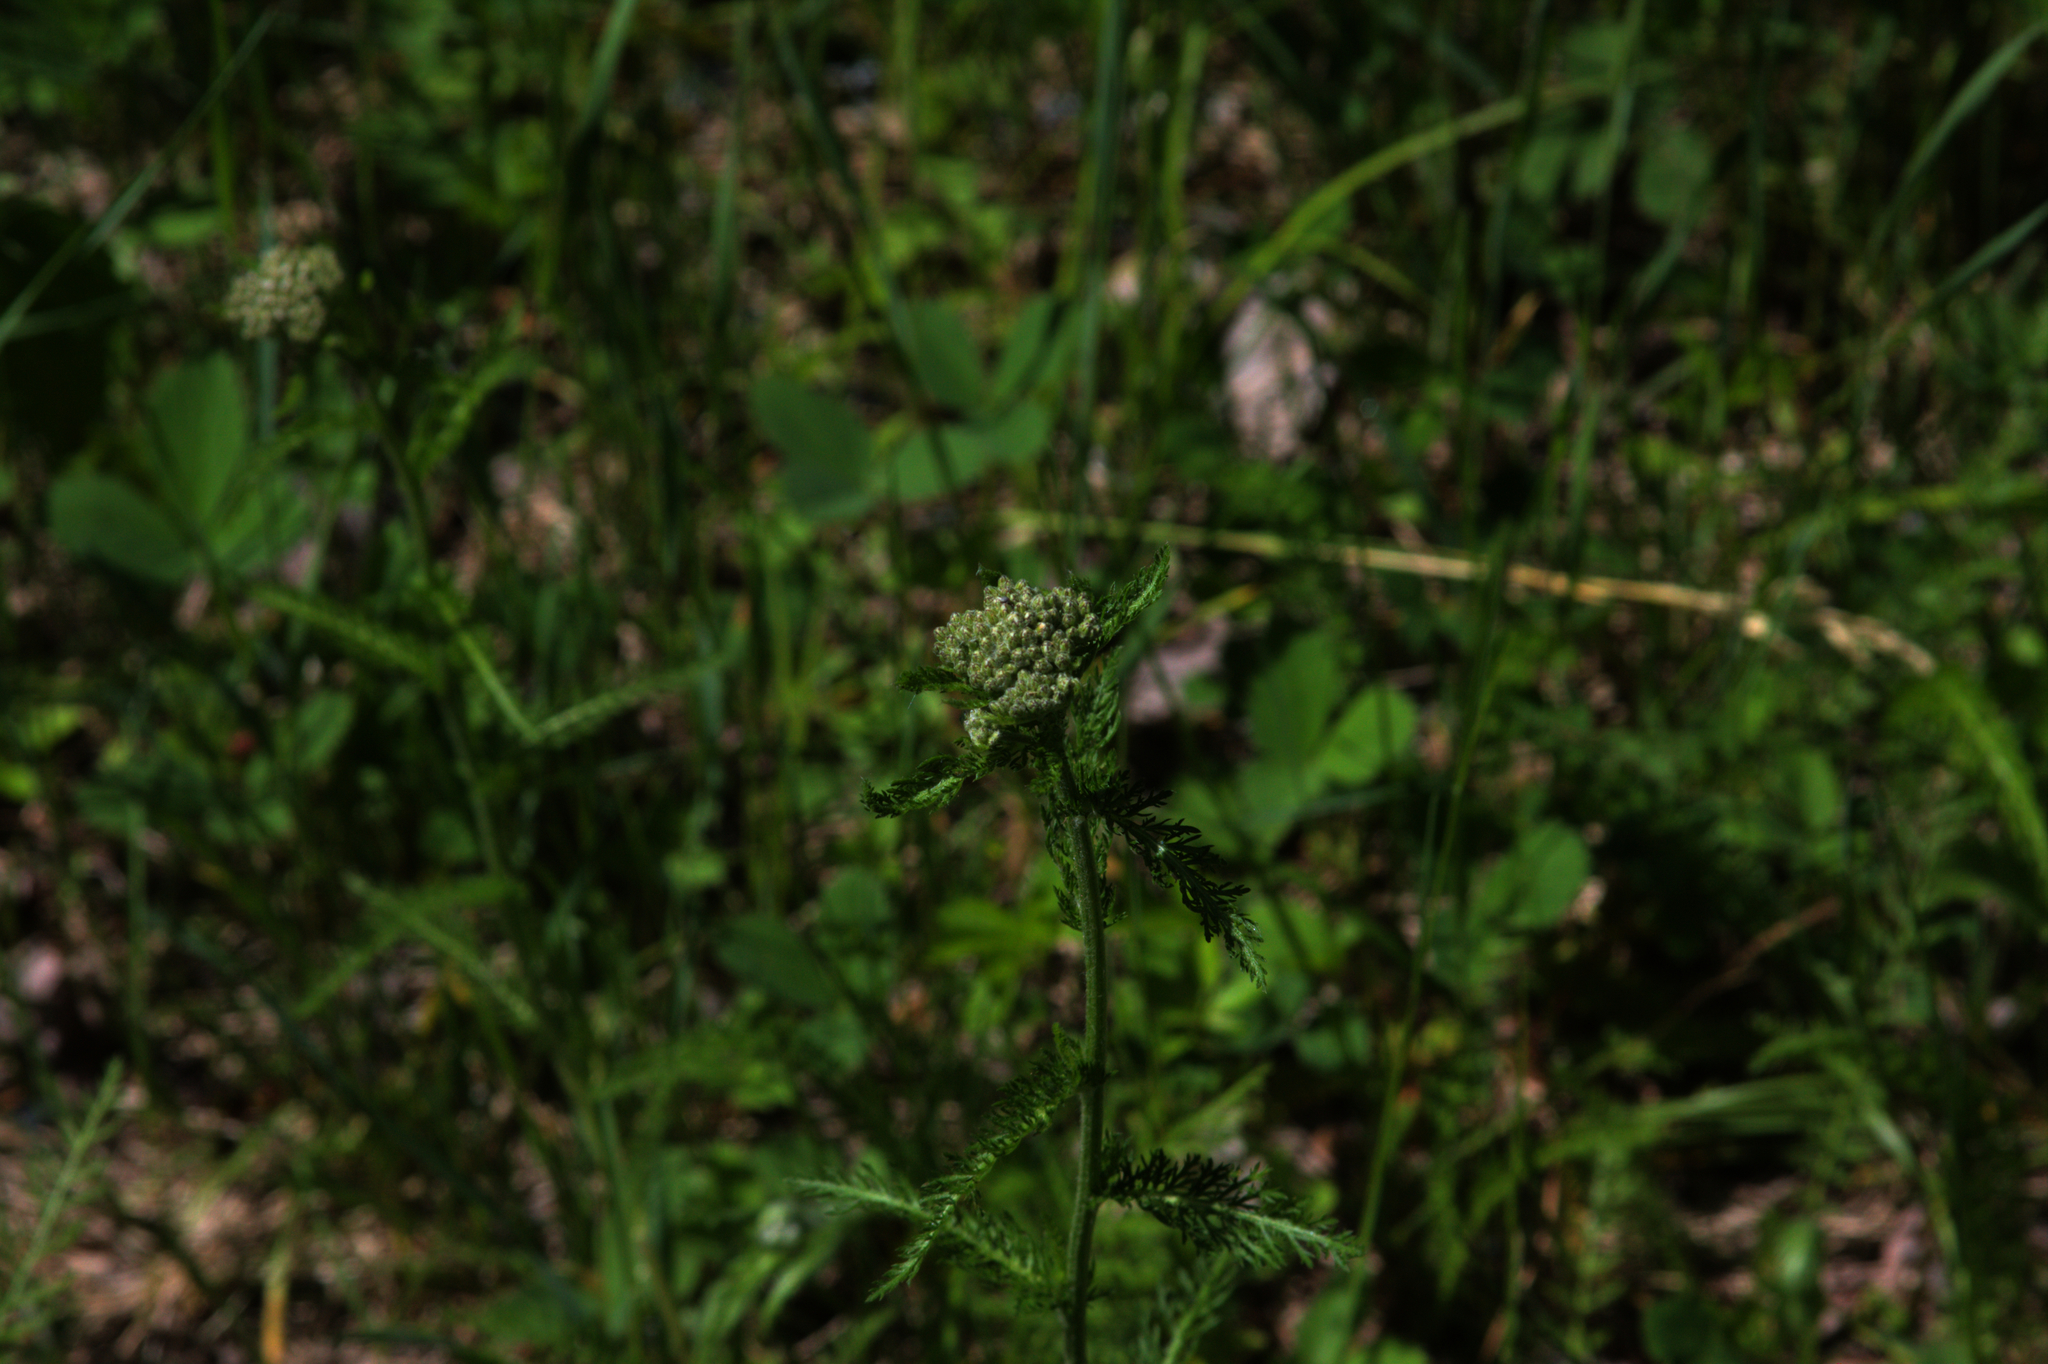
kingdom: Plantae
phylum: Tracheophyta
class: Magnoliopsida
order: Asterales
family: Asteraceae
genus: Achillea
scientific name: Achillea millefolium
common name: Yarrow
